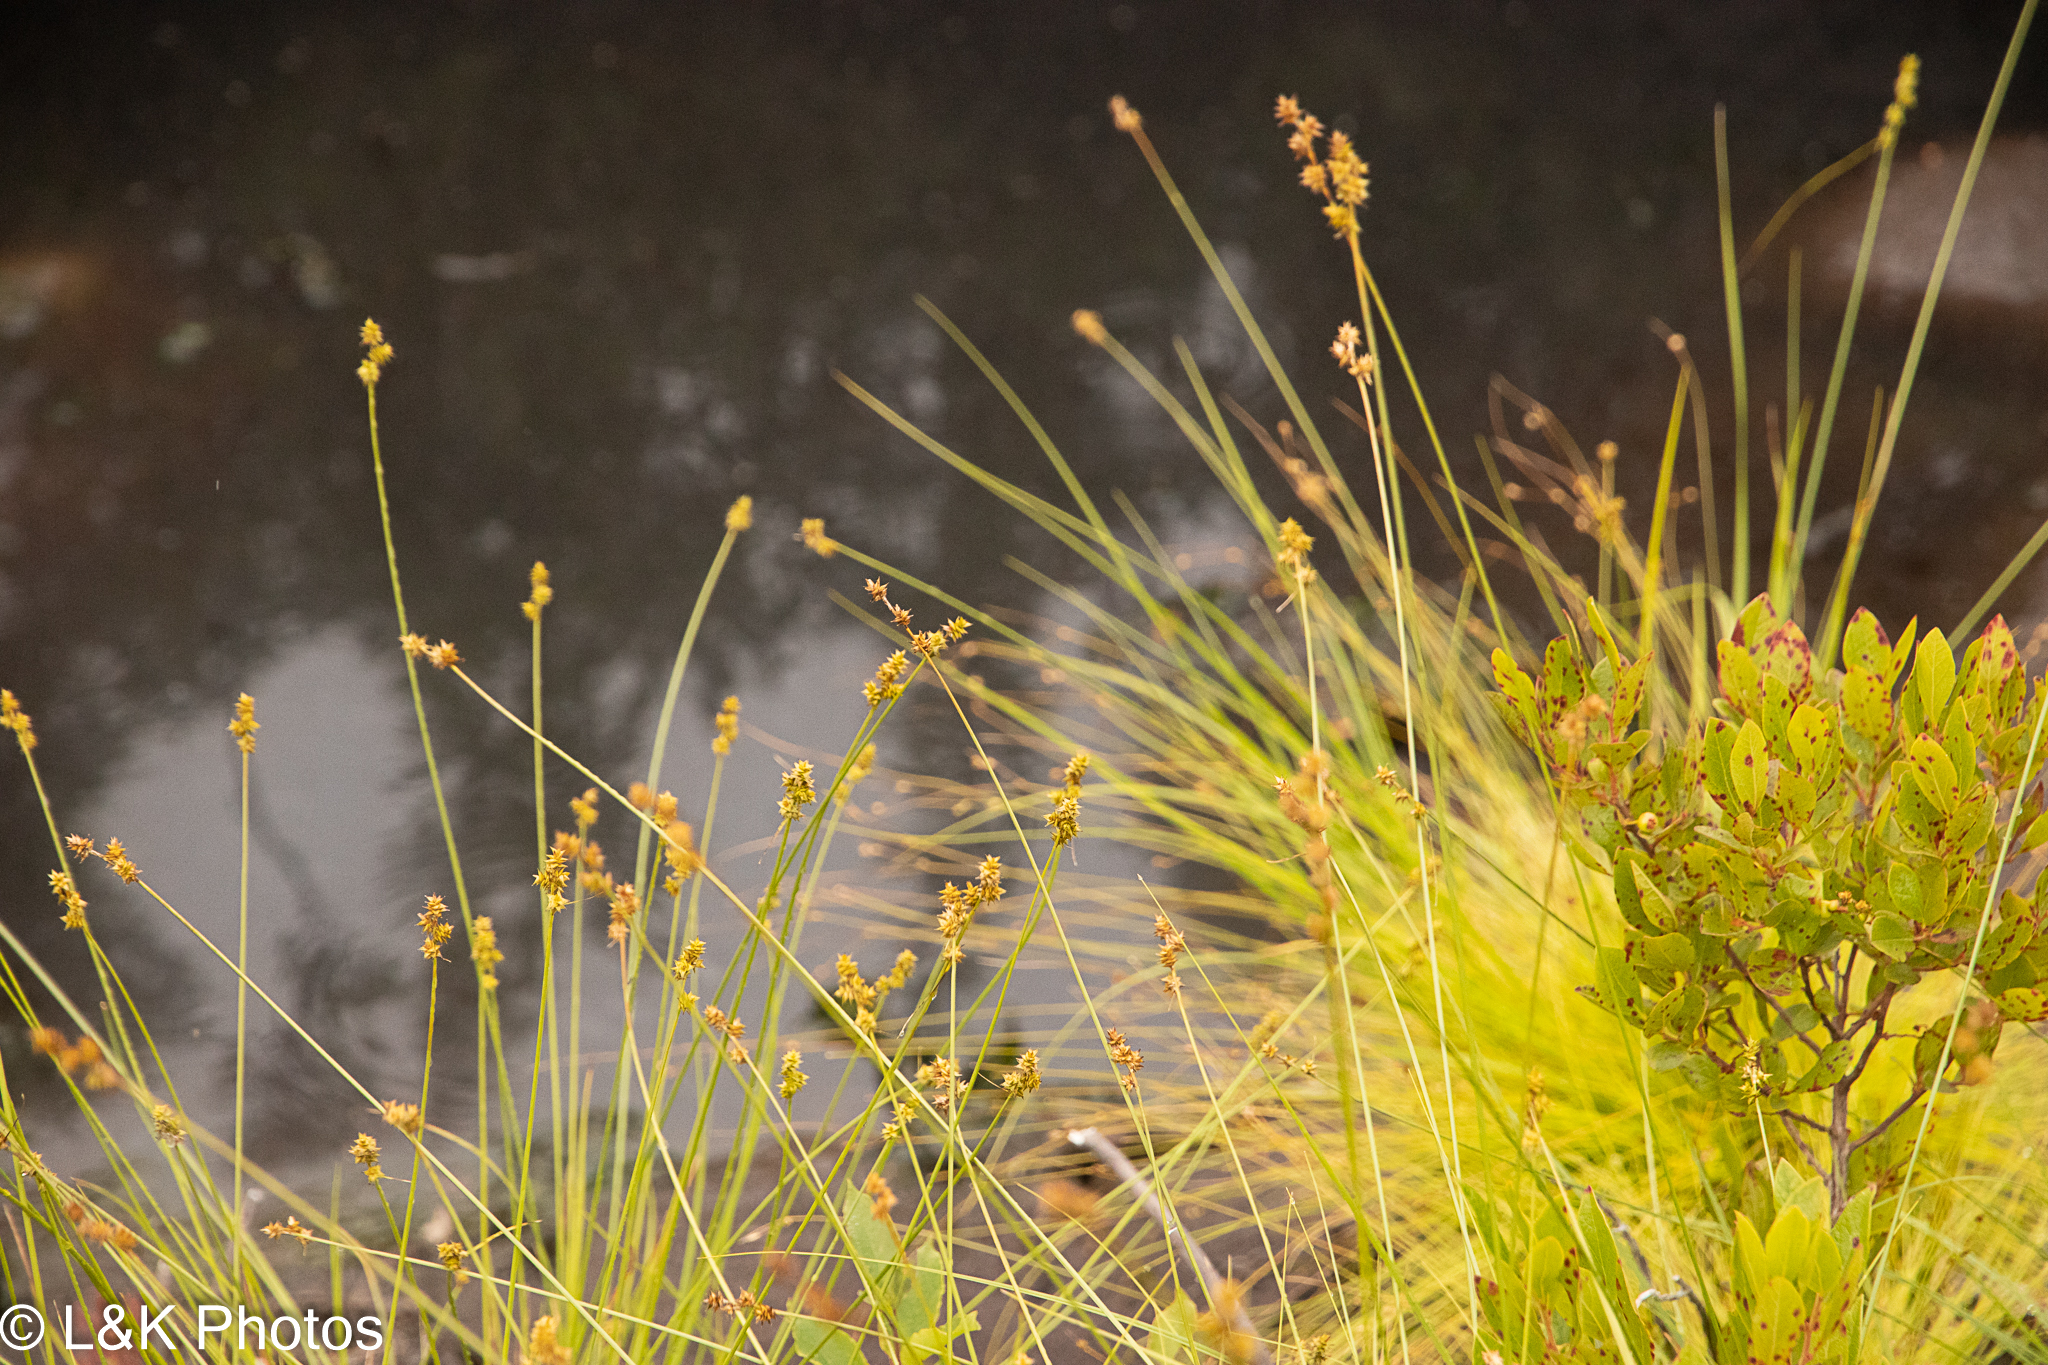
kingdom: Plantae
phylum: Tracheophyta
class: Liliopsida
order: Poales
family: Cyperaceae
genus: Carex
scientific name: Carex atlantica
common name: Atlantic sedge
